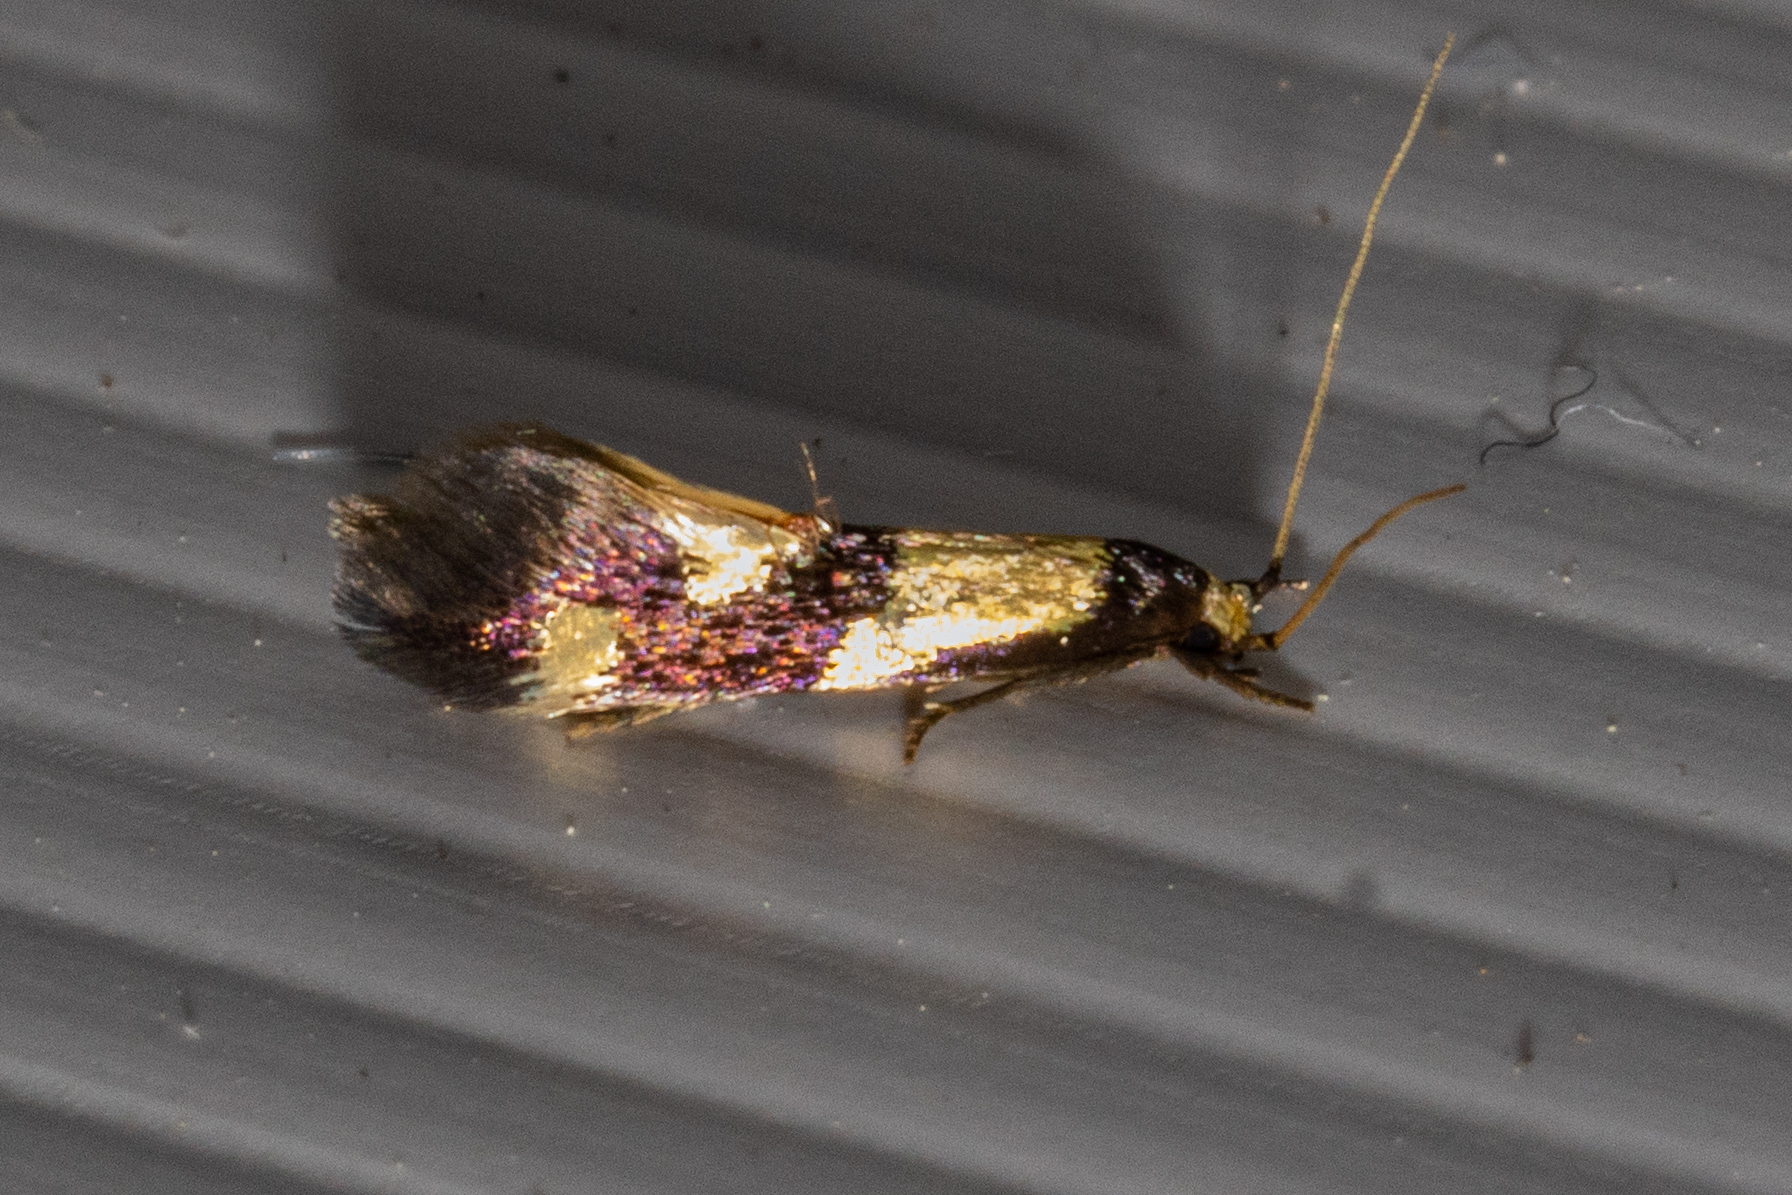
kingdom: Animalia
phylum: Arthropoda
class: Insecta
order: Lepidoptera
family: Tineidae
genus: Opogona
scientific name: Opogona comptella
